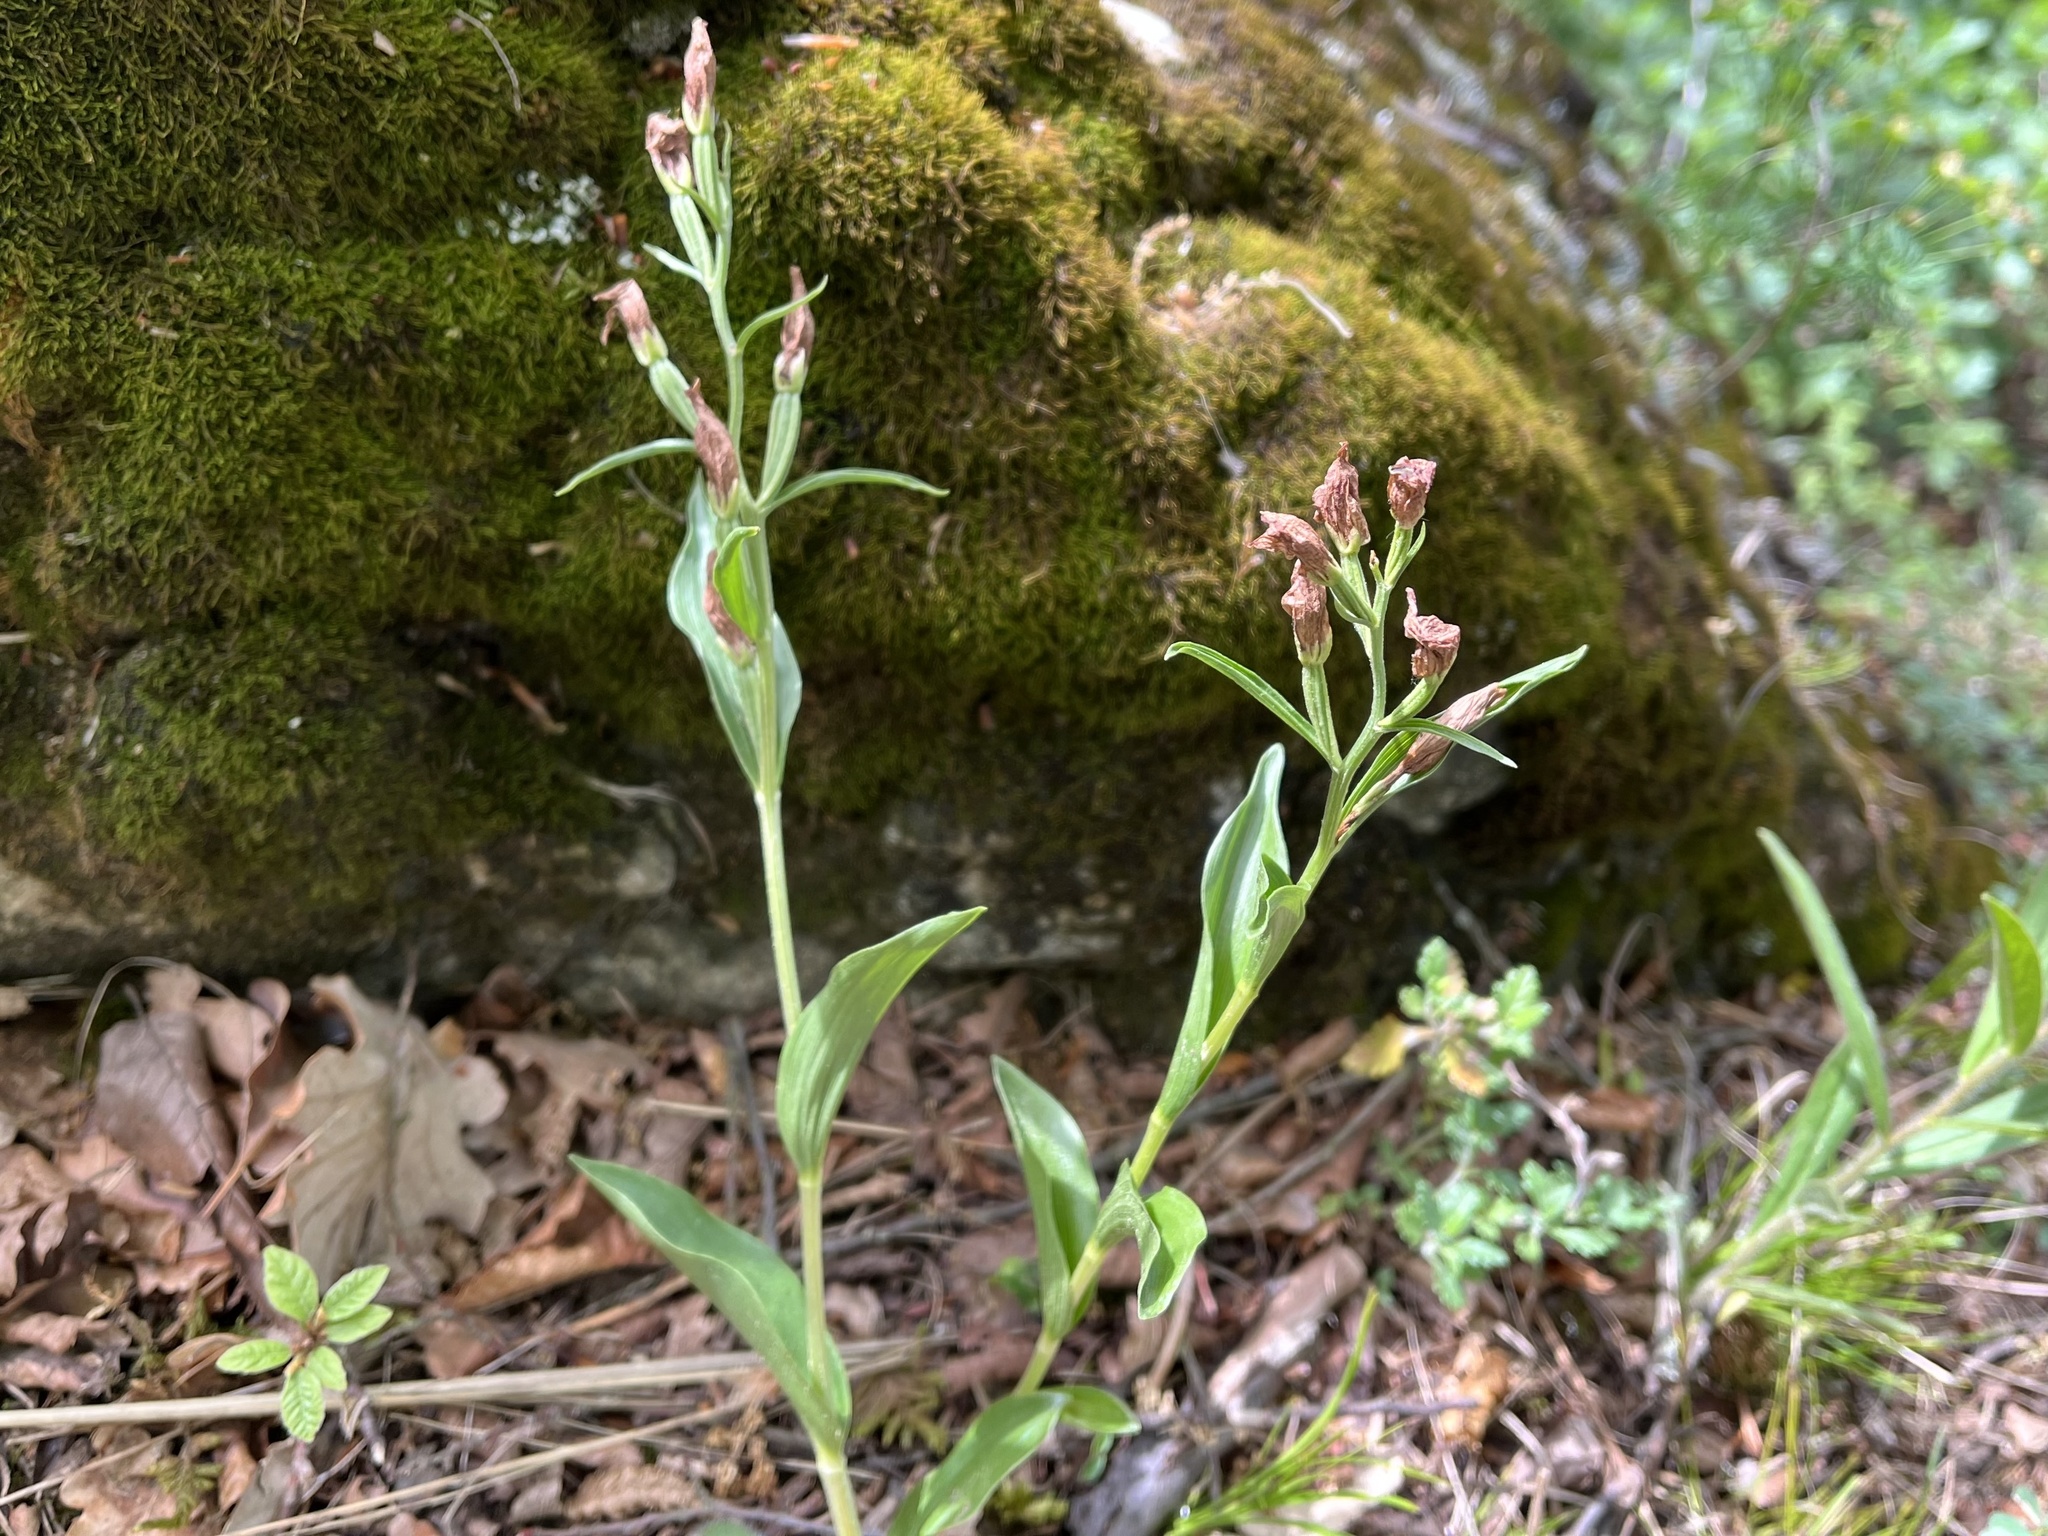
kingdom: Plantae
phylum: Tracheophyta
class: Liliopsida
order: Asparagales
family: Orchidaceae
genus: Cephalanthera
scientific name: Cephalanthera damasonium
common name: White helleborine
